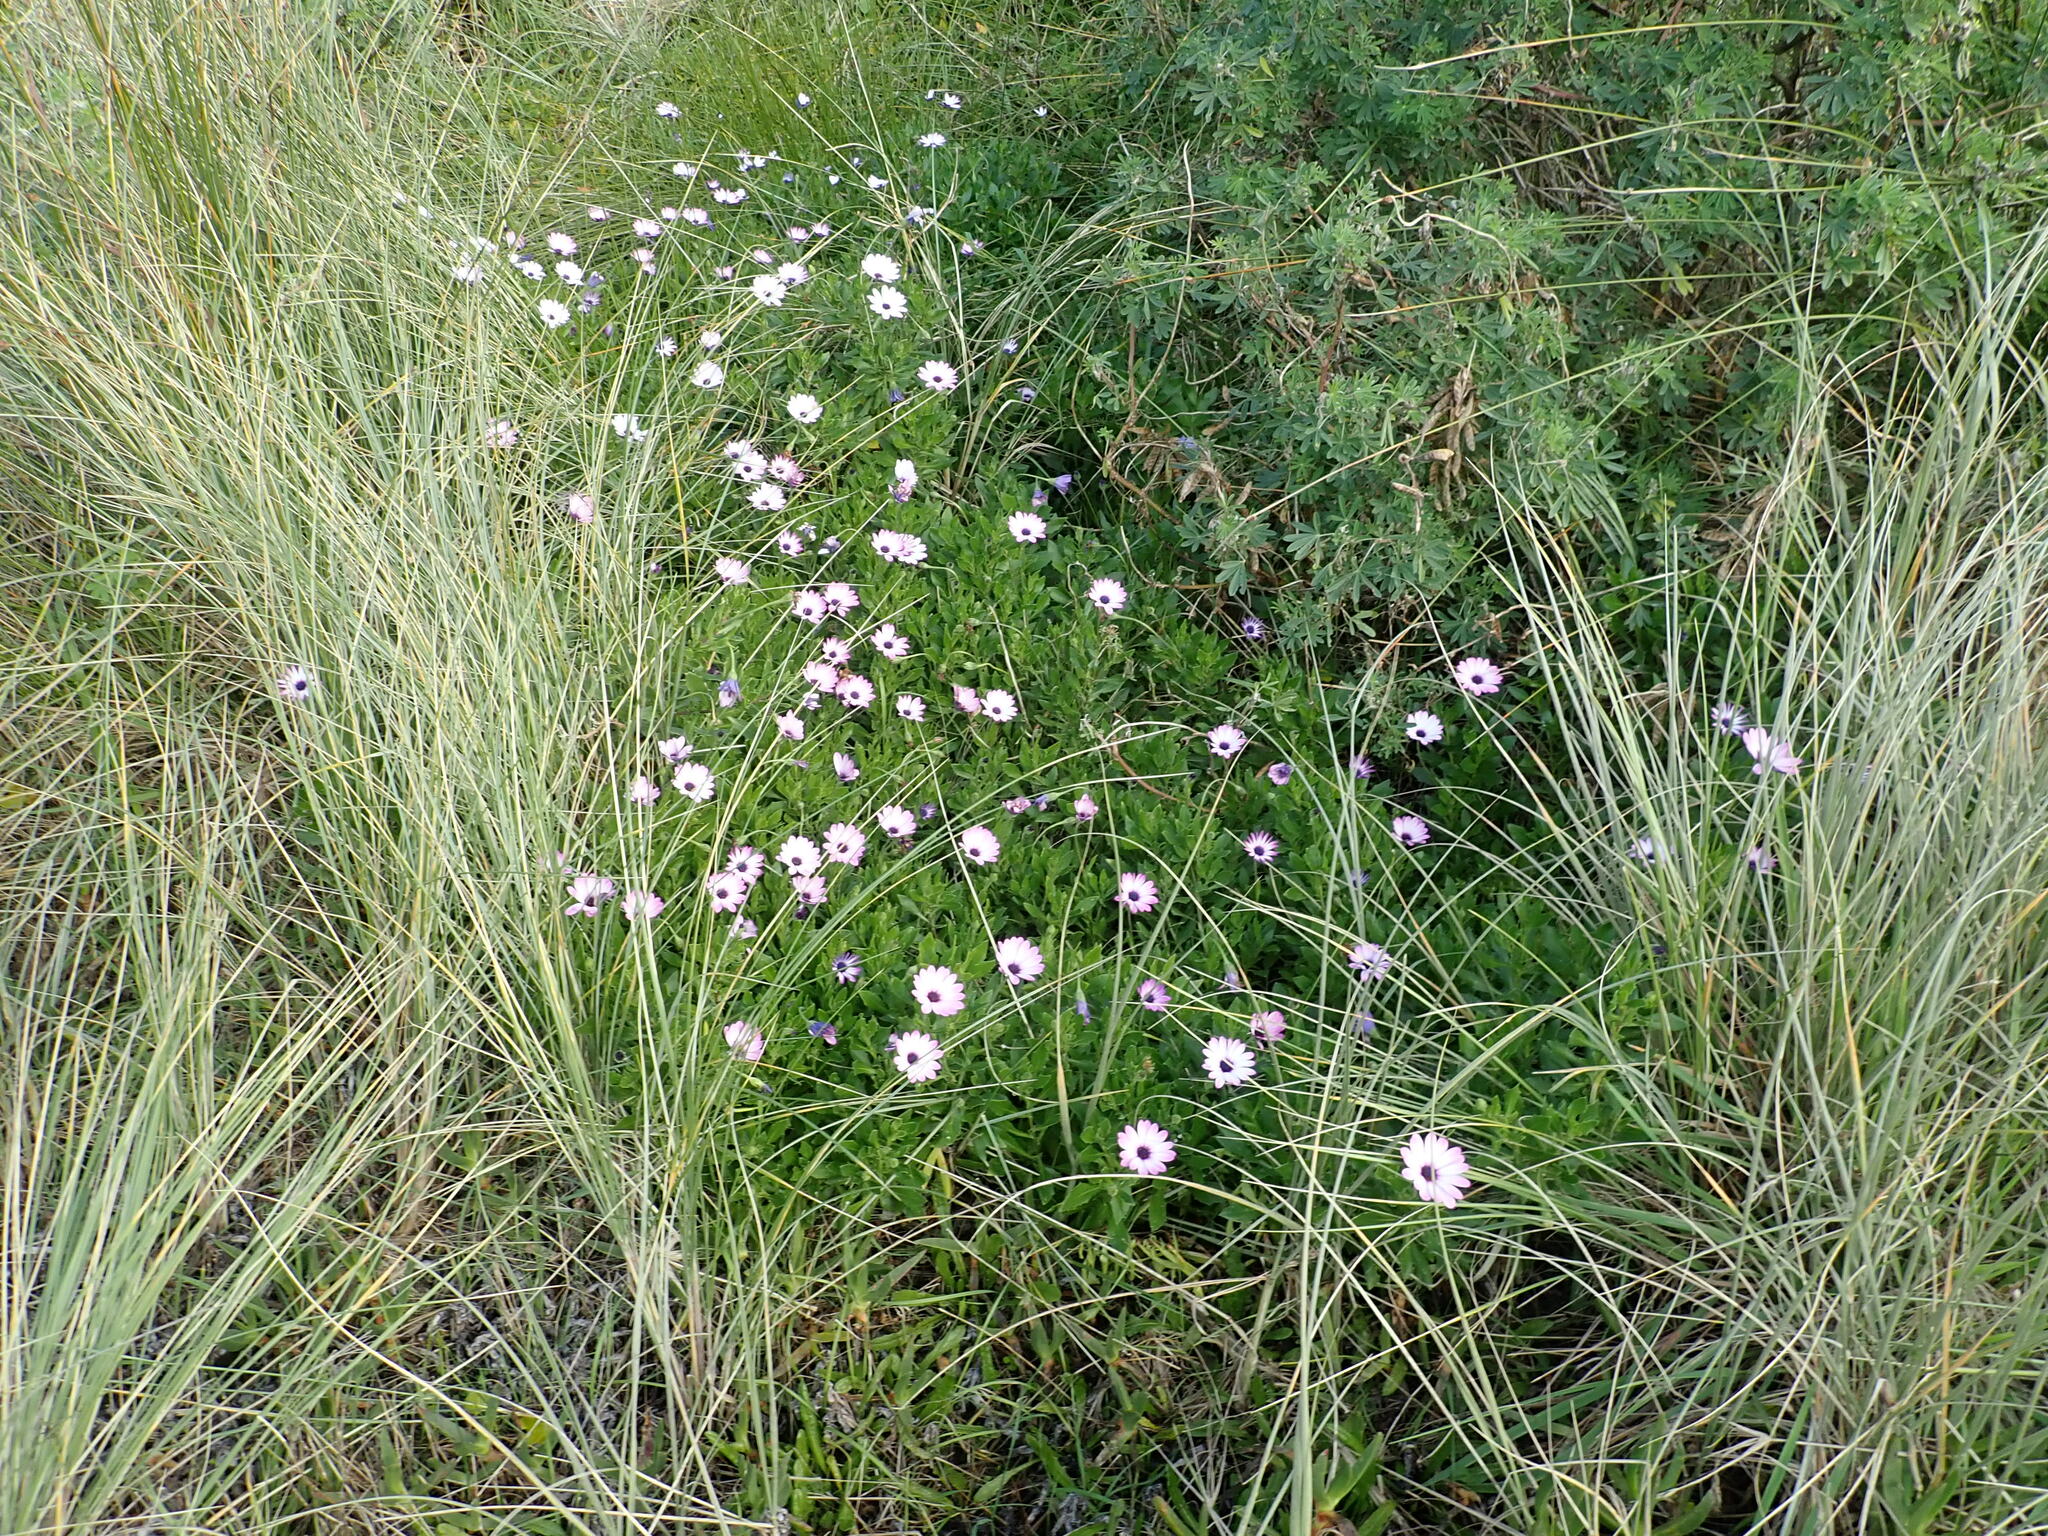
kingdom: Plantae
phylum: Tracheophyta
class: Magnoliopsida
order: Asterales
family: Asteraceae
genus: Dimorphotheca
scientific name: Dimorphotheca fruticosa
